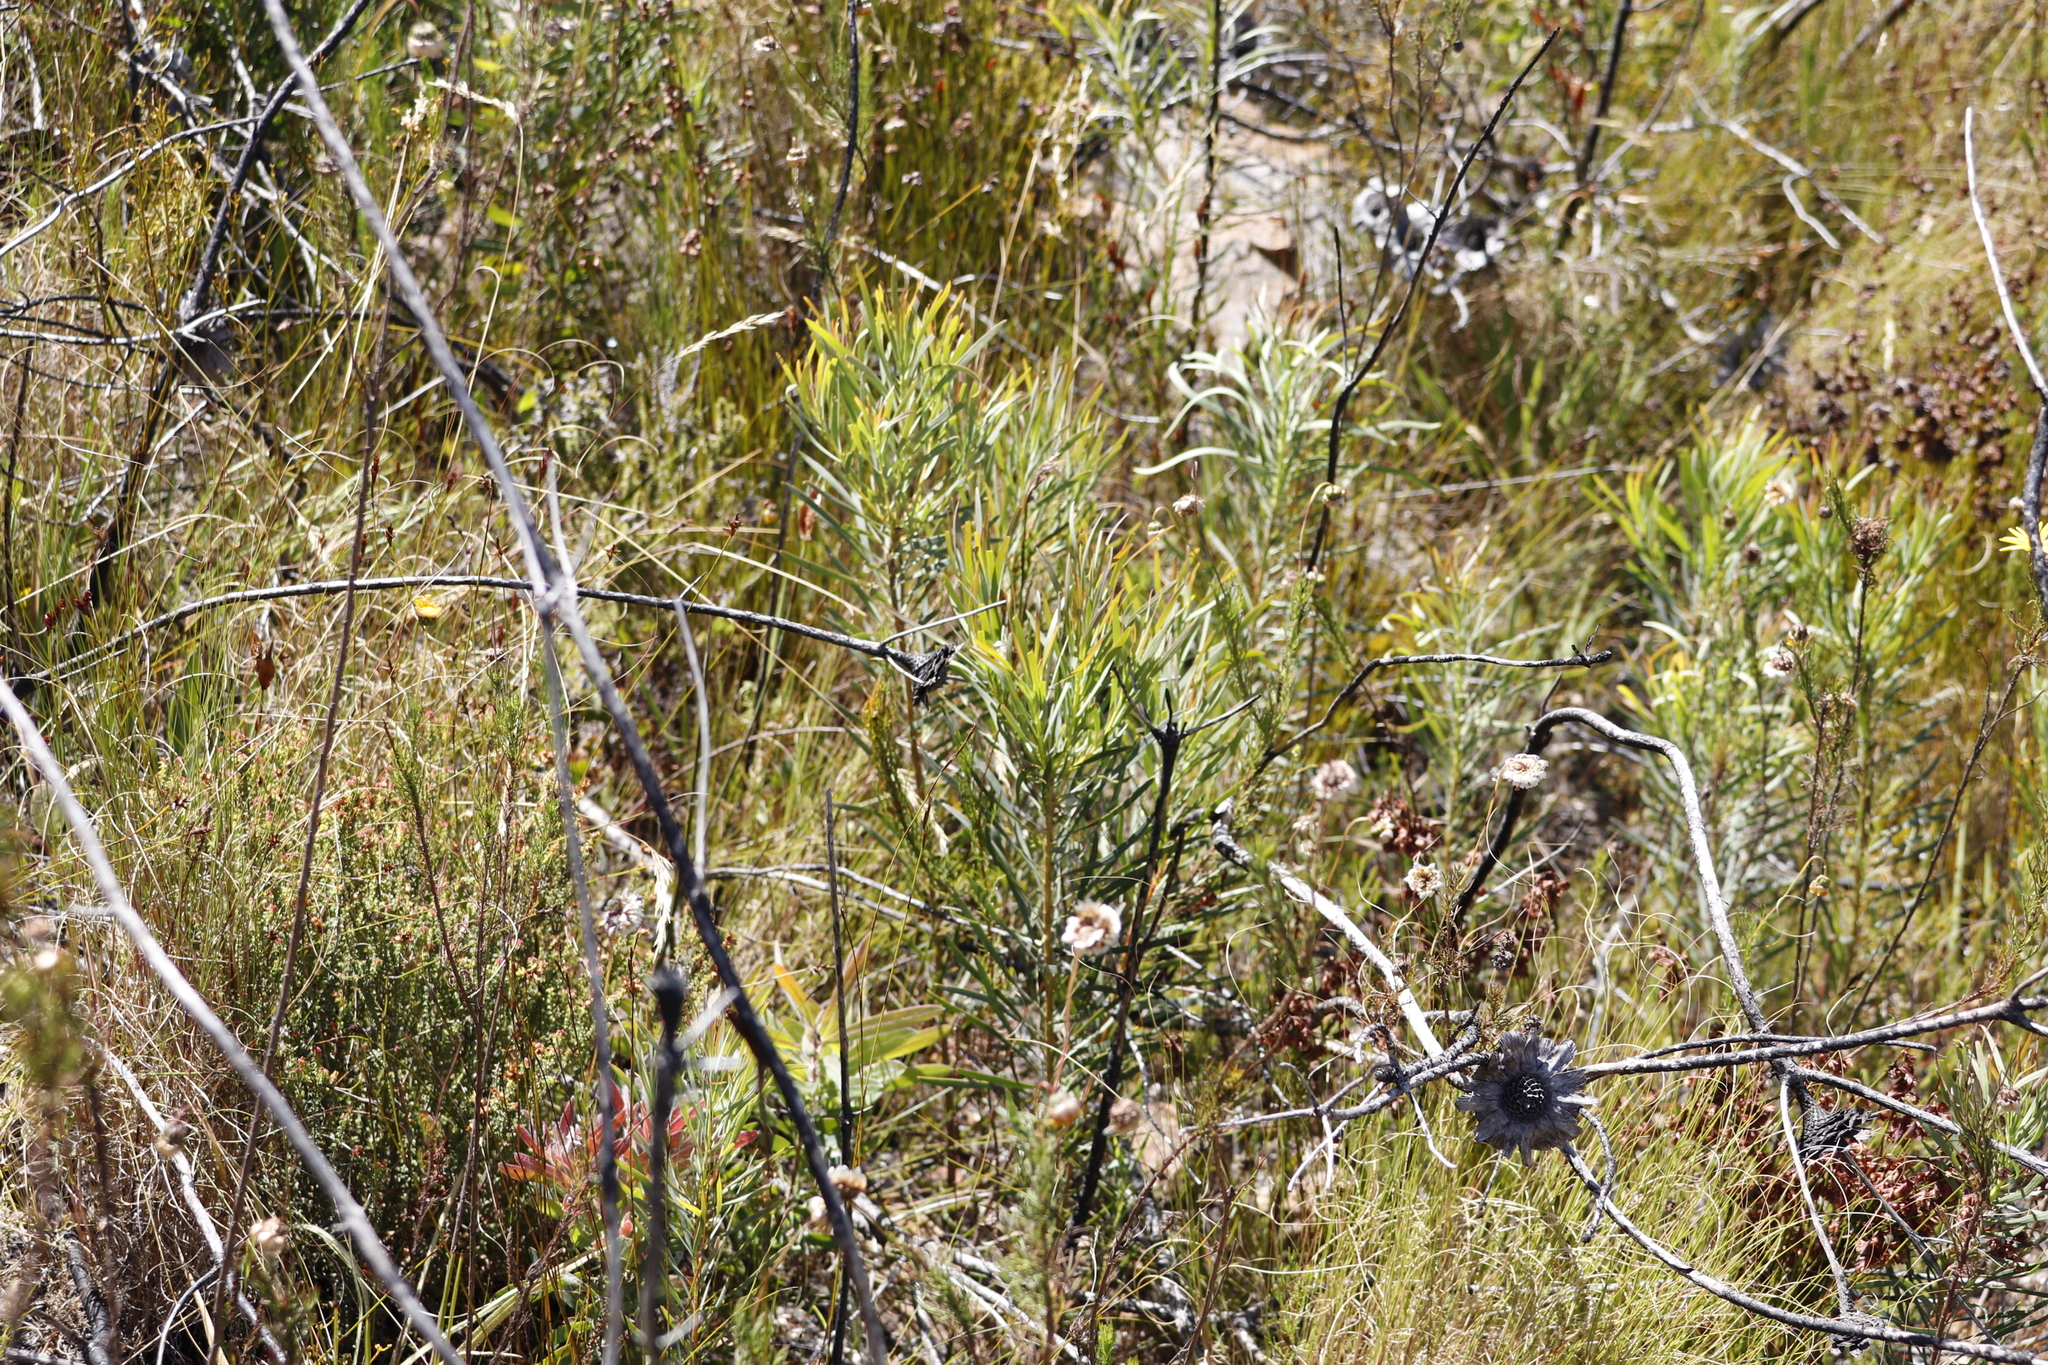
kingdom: Plantae
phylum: Tracheophyta
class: Magnoliopsida
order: Proteales
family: Proteaceae
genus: Protea
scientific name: Protea repens
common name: Sugarbush
